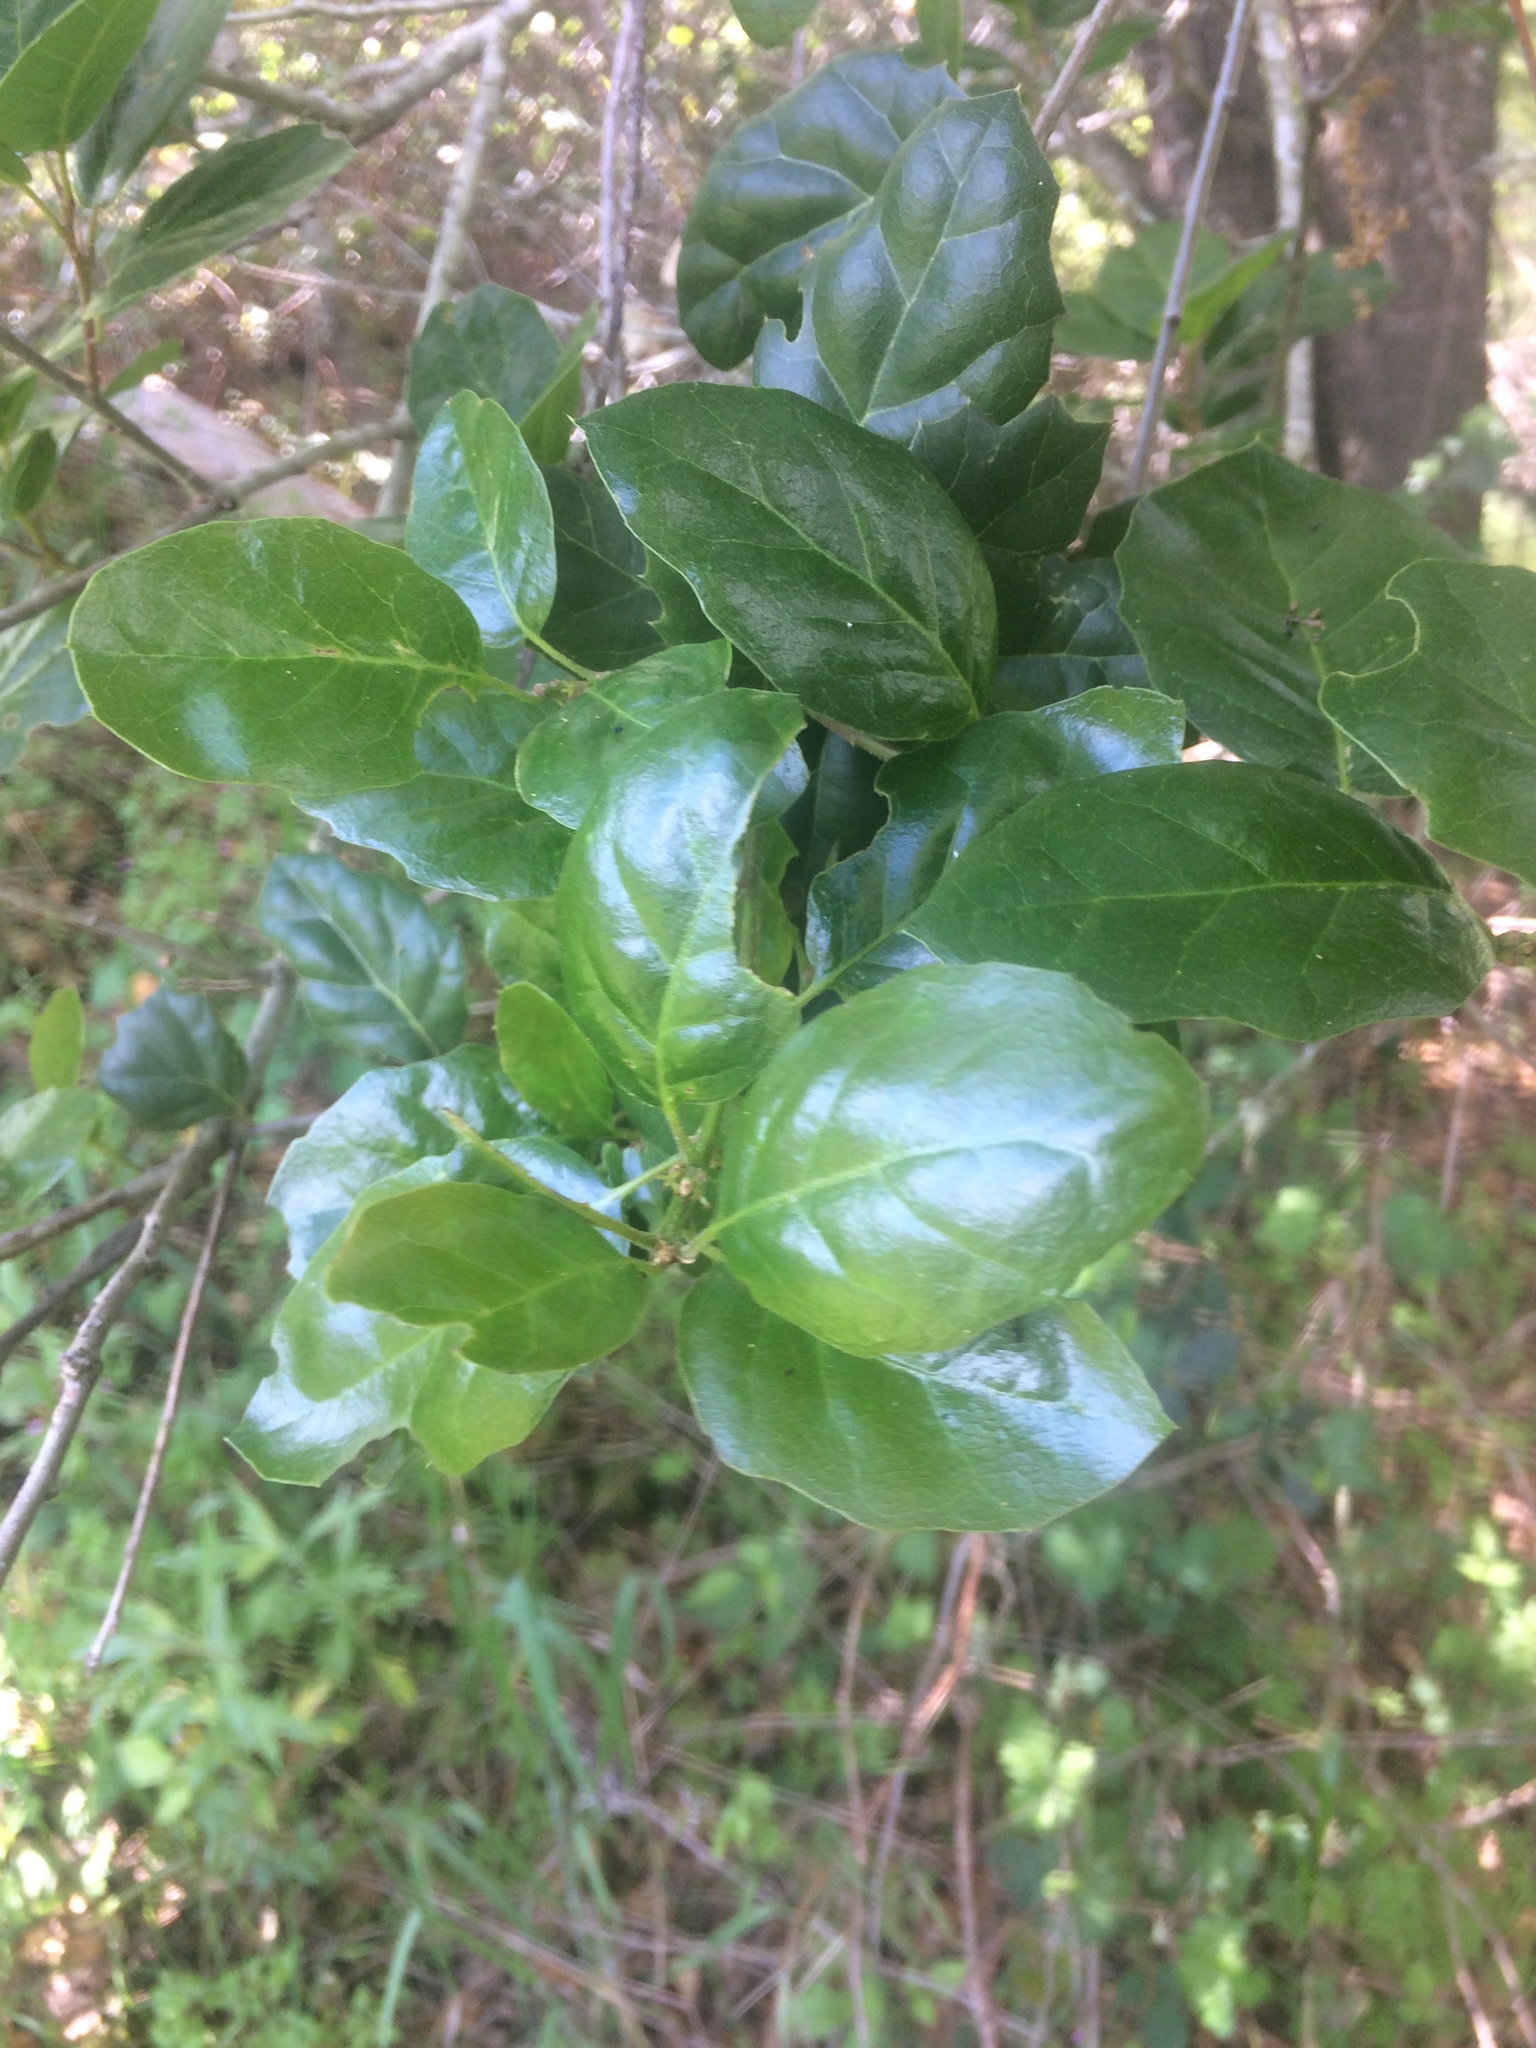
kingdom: Plantae
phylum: Tracheophyta
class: Magnoliopsida
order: Fagales
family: Fagaceae
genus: Quercus
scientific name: Quercus agrifolia
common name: California live oak
